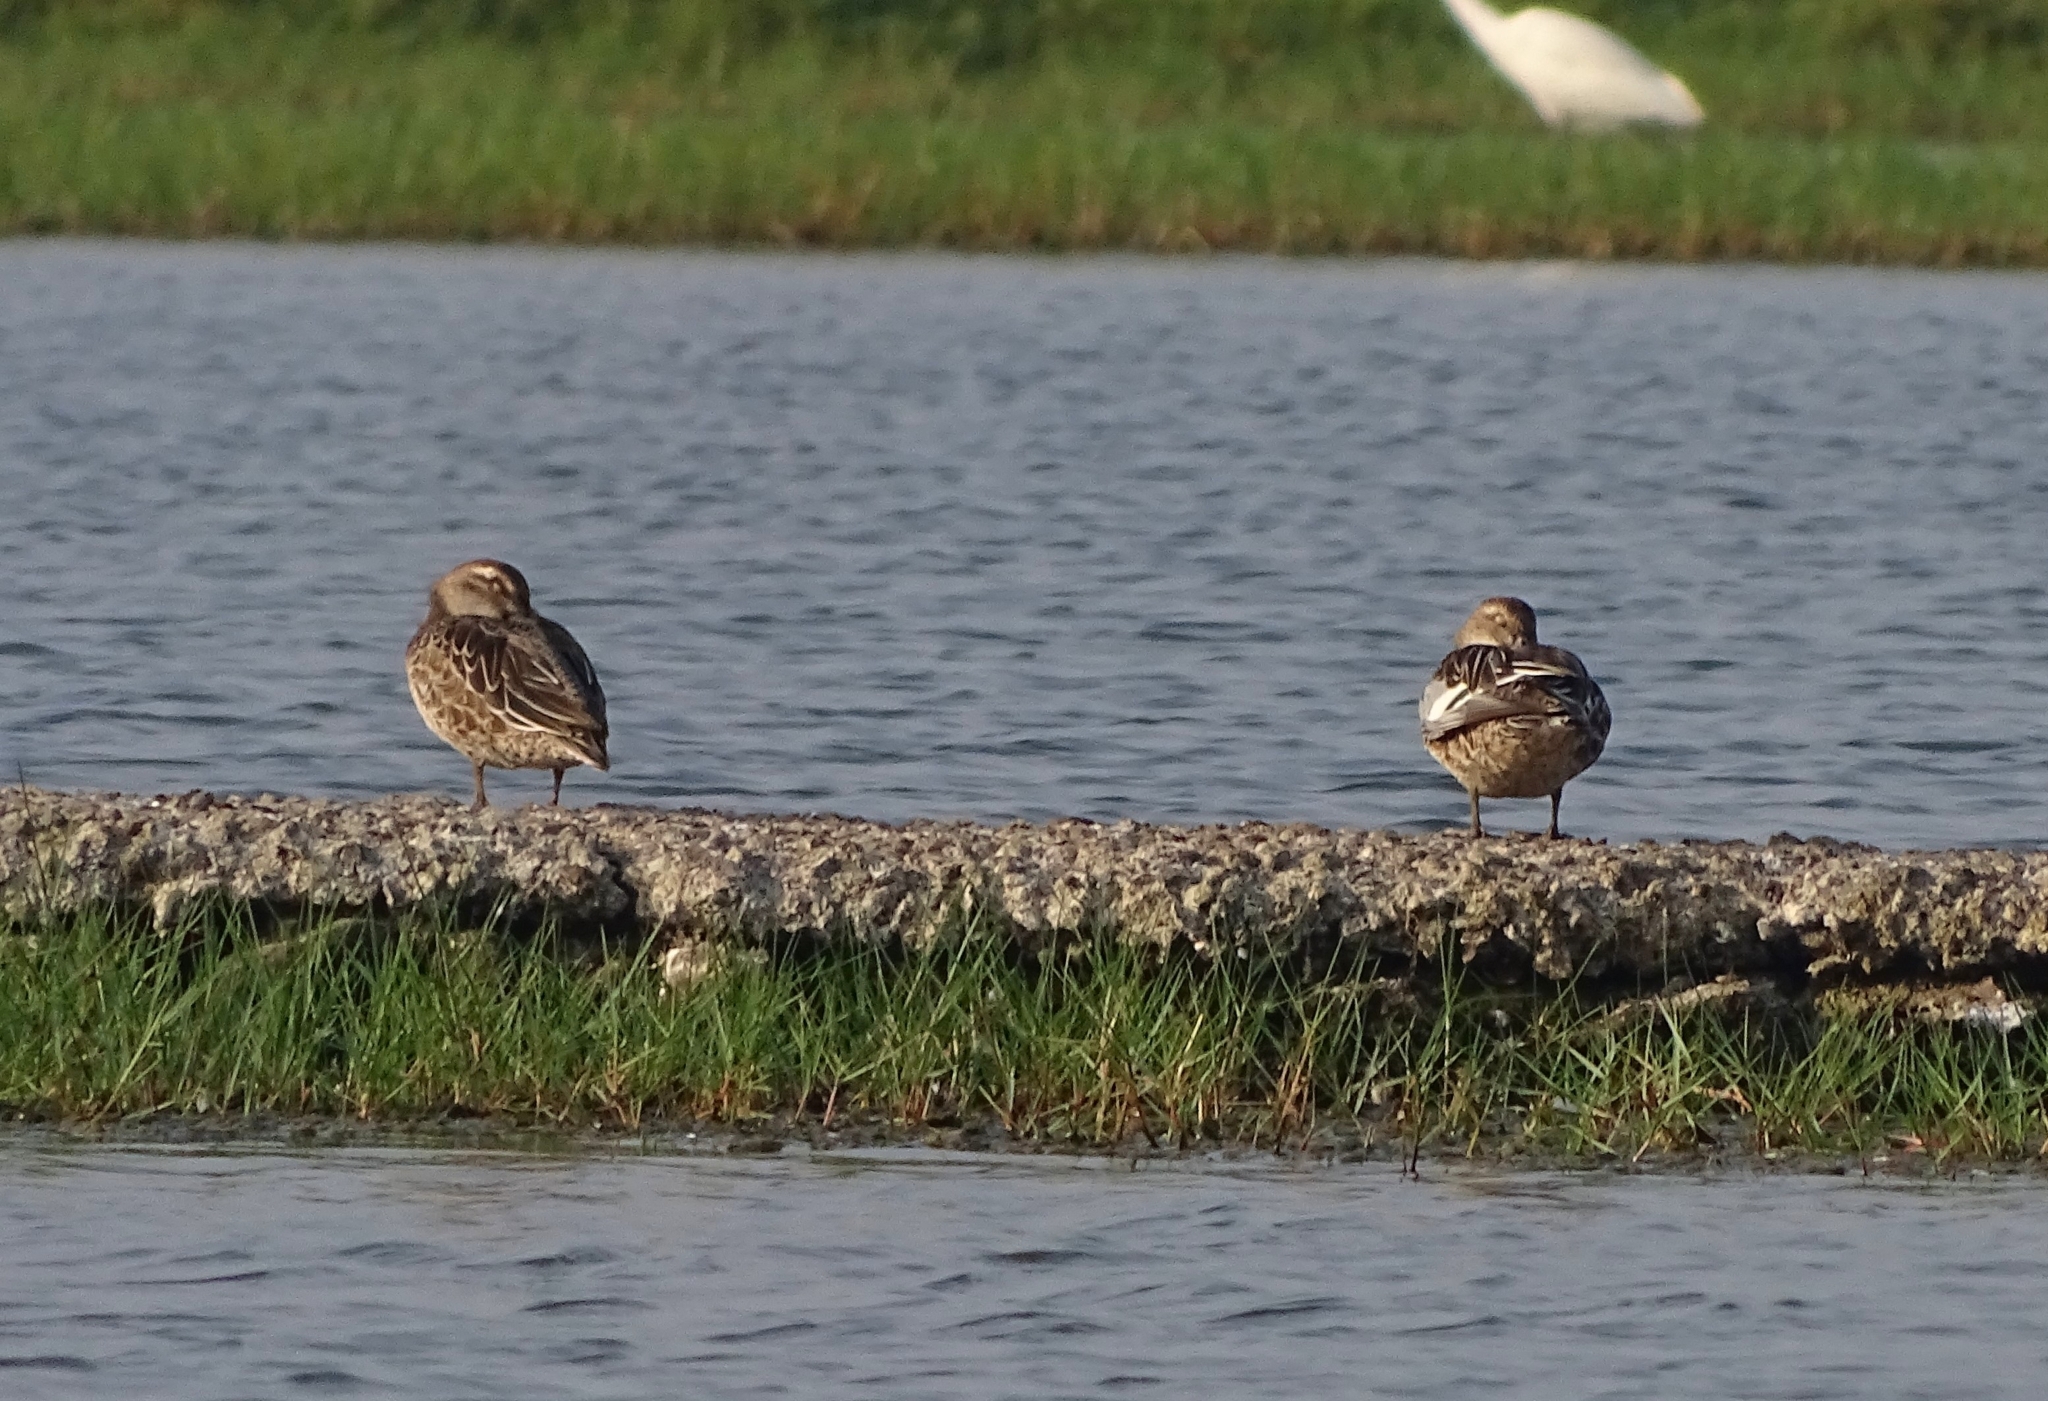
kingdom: Animalia
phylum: Chordata
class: Aves
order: Anseriformes
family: Anatidae
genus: Spatula
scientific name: Spatula querquedula
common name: Garganey
